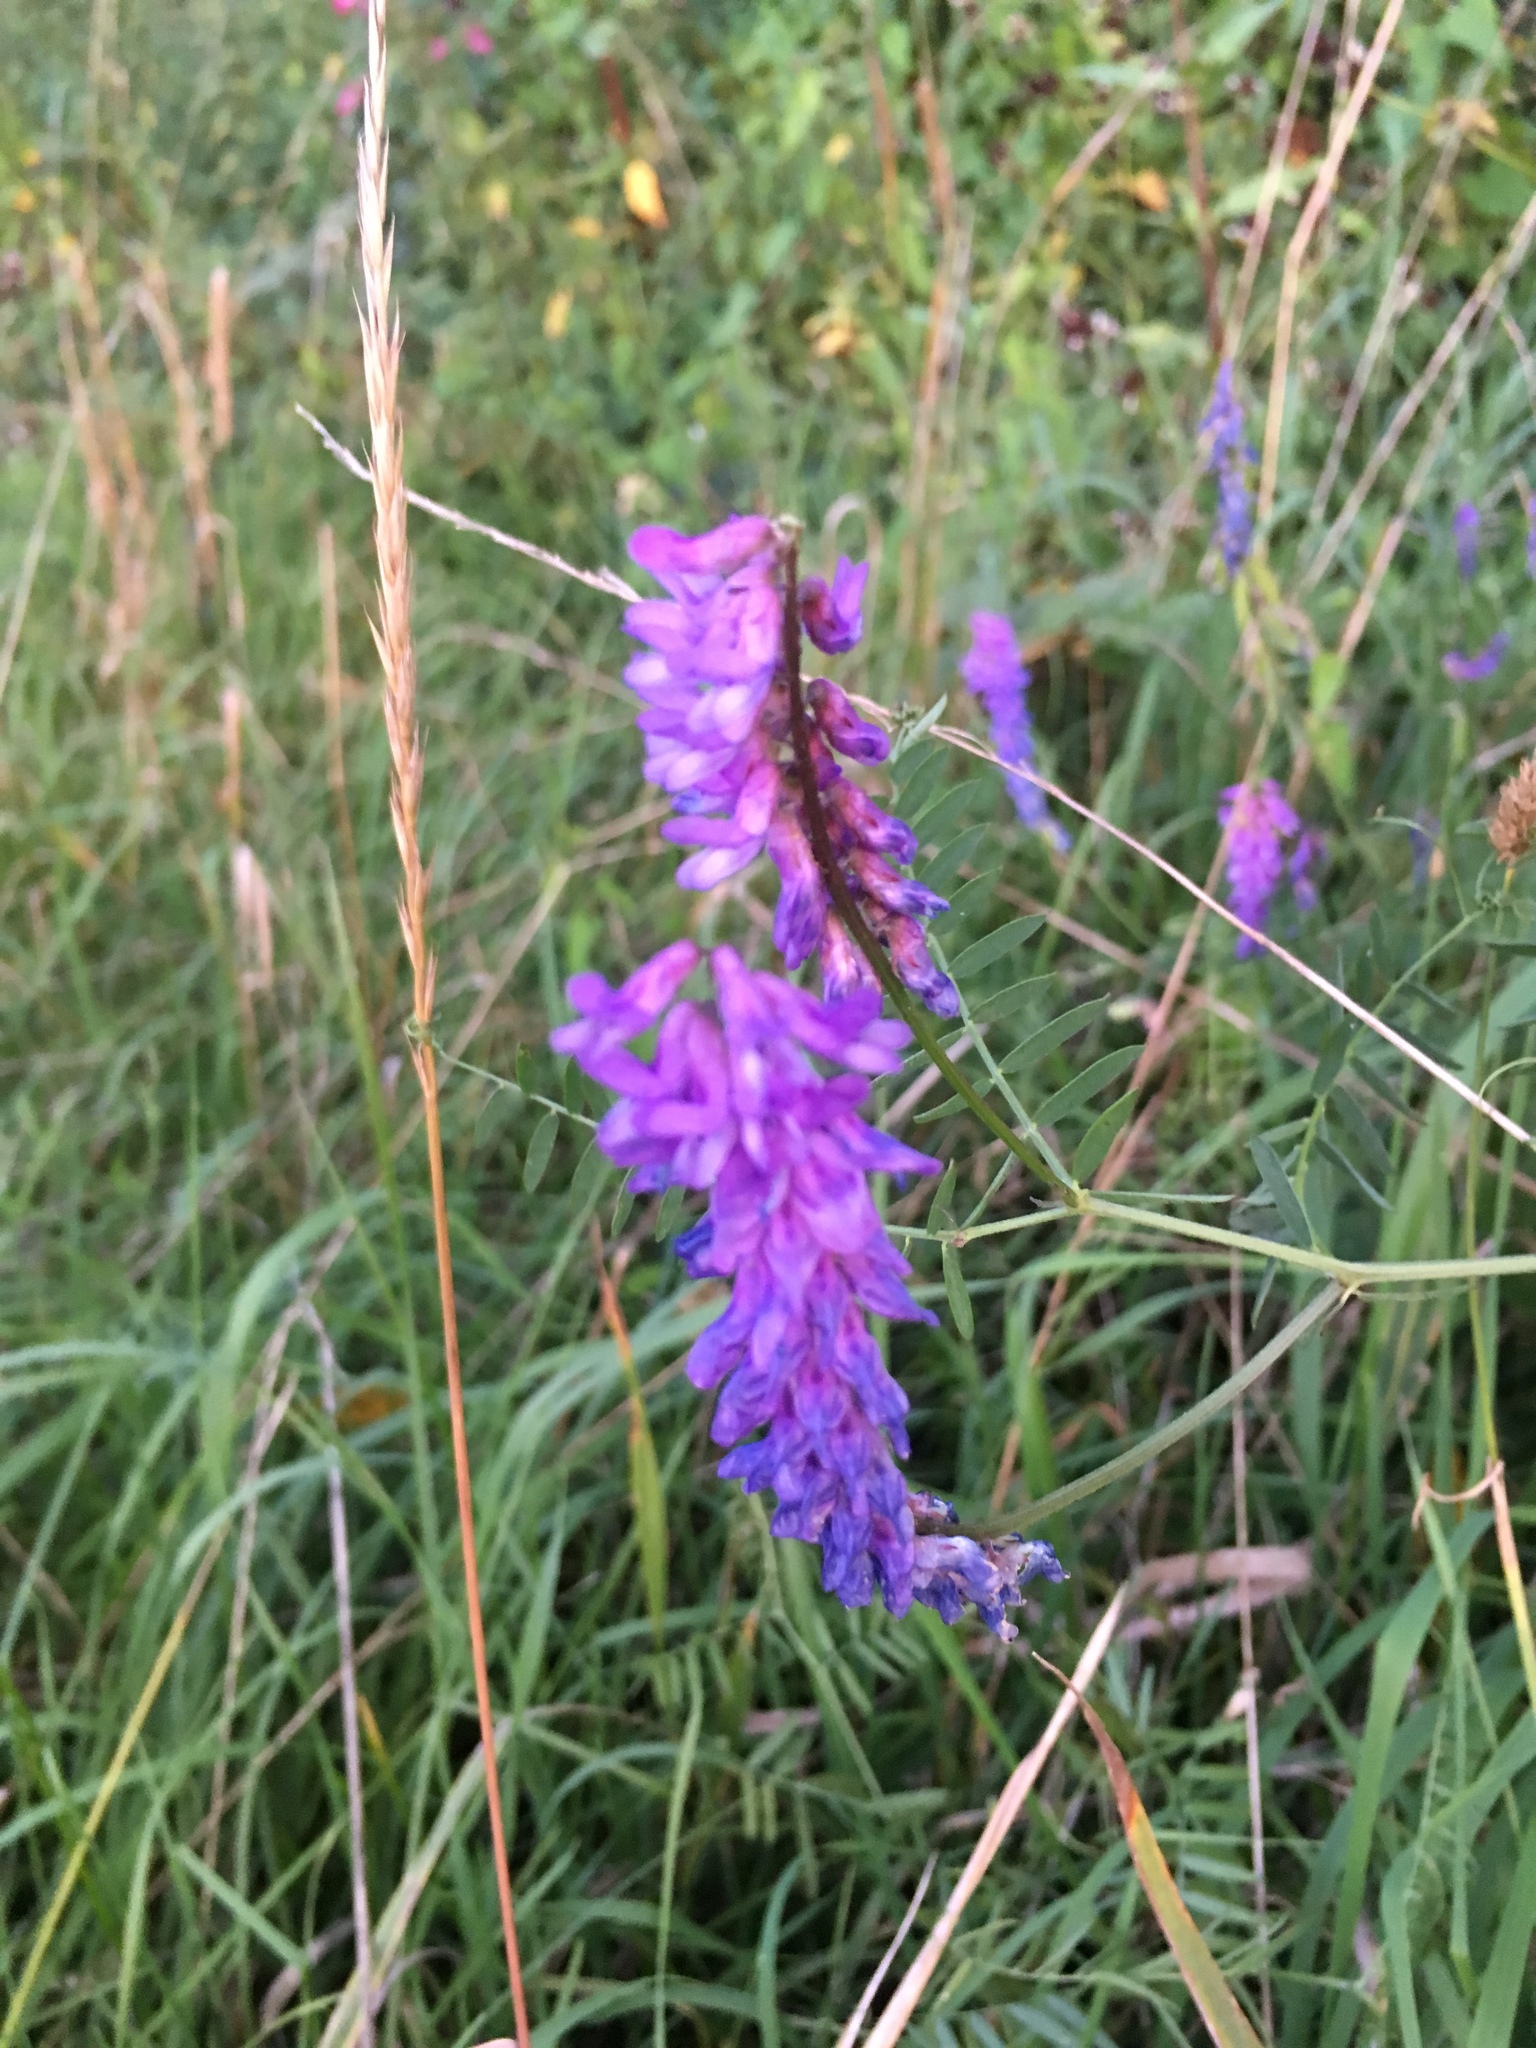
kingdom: Plantae
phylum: Tracheophyta
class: Magnoliopsida
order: Fabales
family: Fabaceae
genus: Vicia
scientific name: Vicia cracca
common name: Bird vetch
